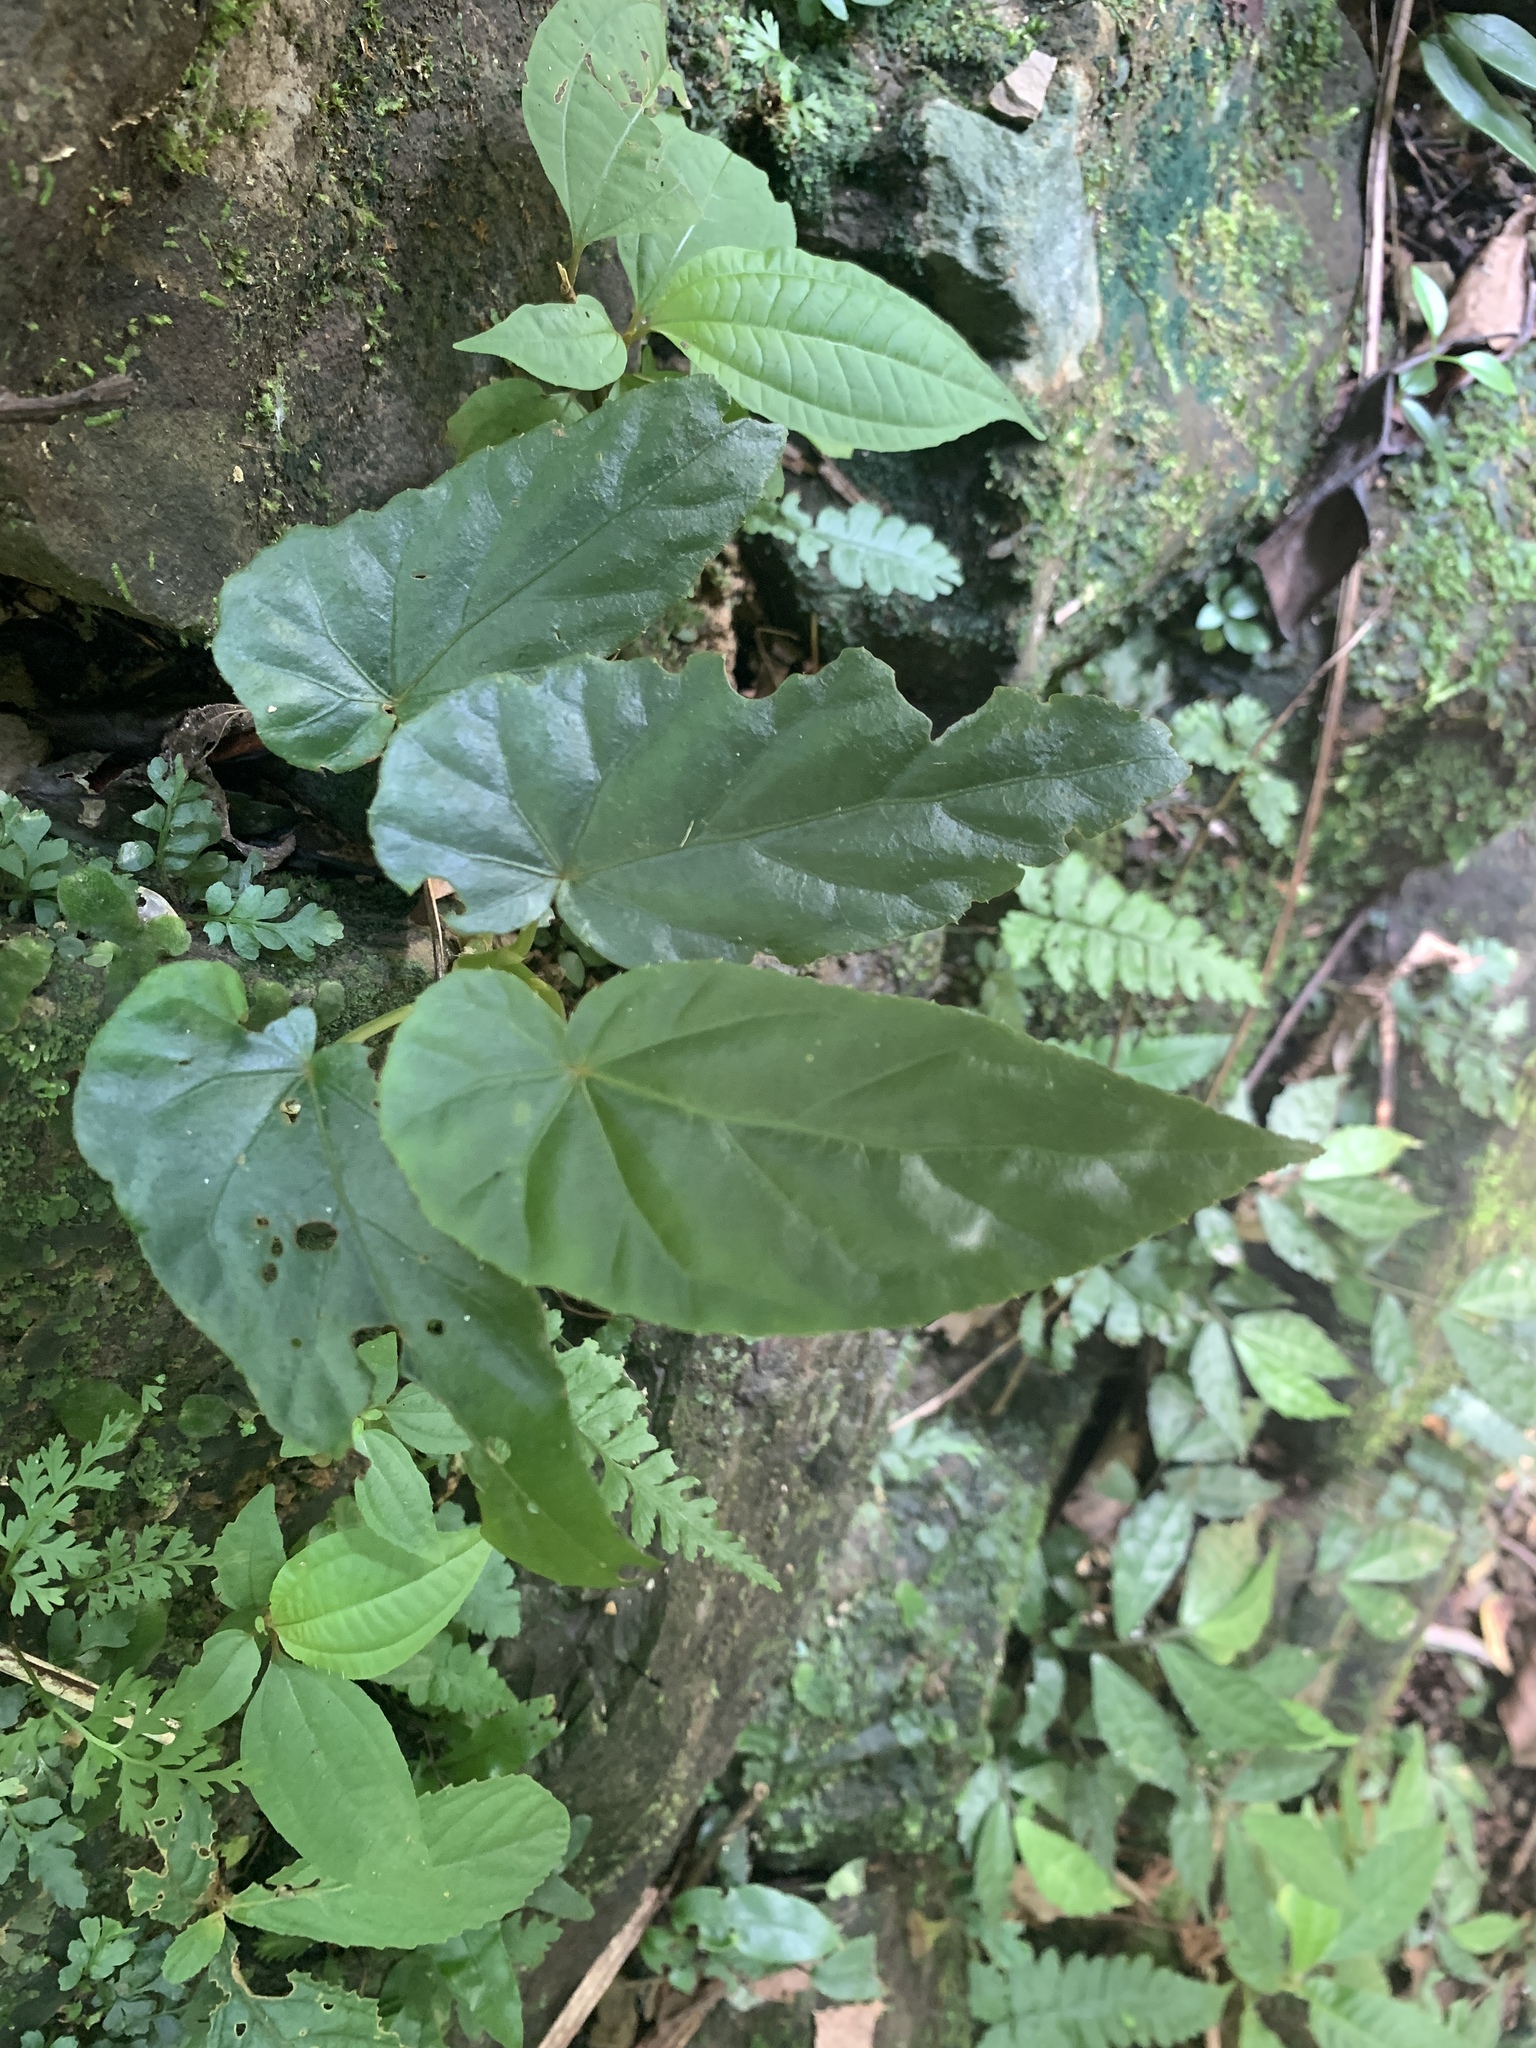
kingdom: Plantae
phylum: Tracheophyta
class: Magnoliopsida
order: Cucurbitales
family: Begoniaceae
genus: Begonia
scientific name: Begonia longifolia
